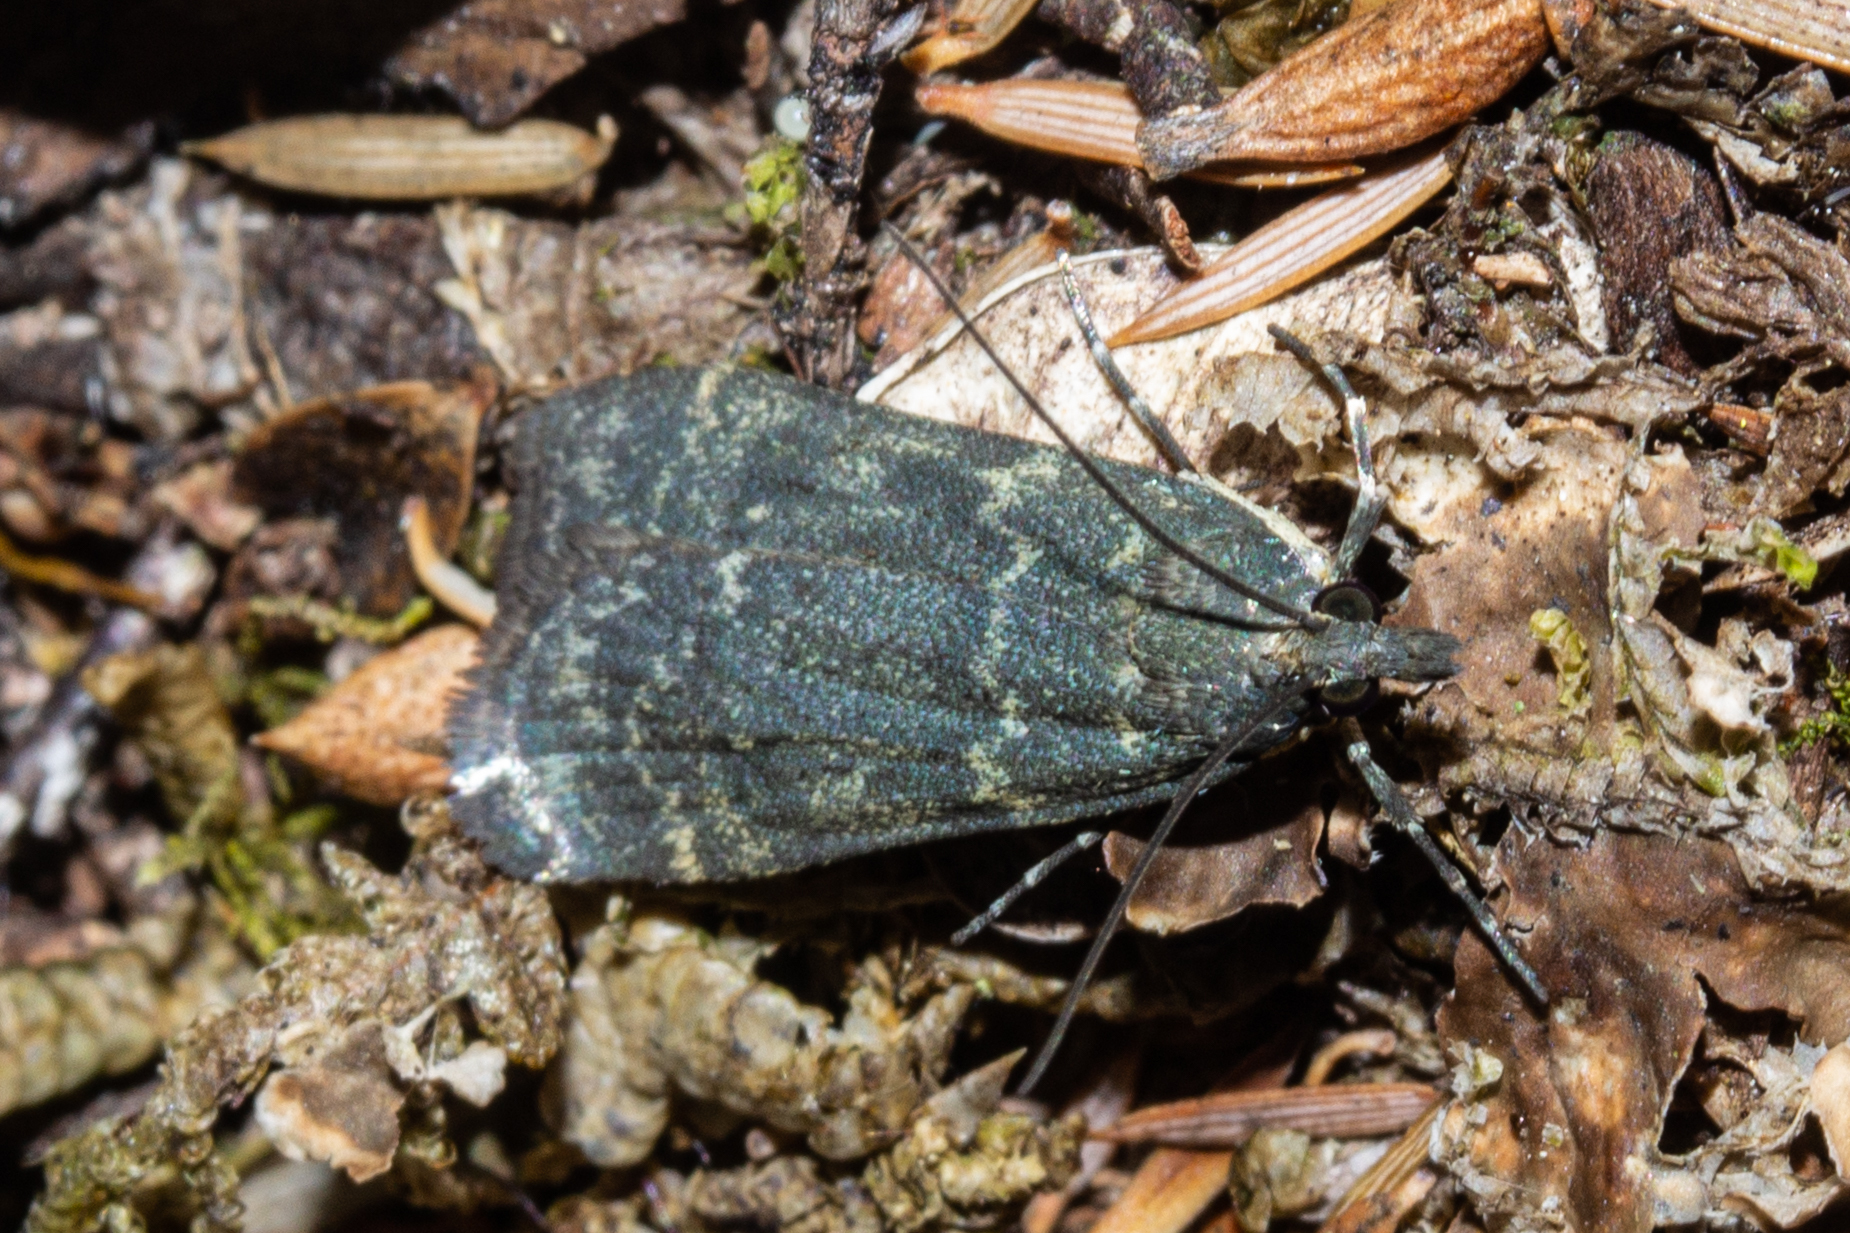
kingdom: Animalia
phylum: Arthropoda
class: Insecta
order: Lepidoptera
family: Crambidae
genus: Eudonia
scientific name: Eudonia cataxesta
